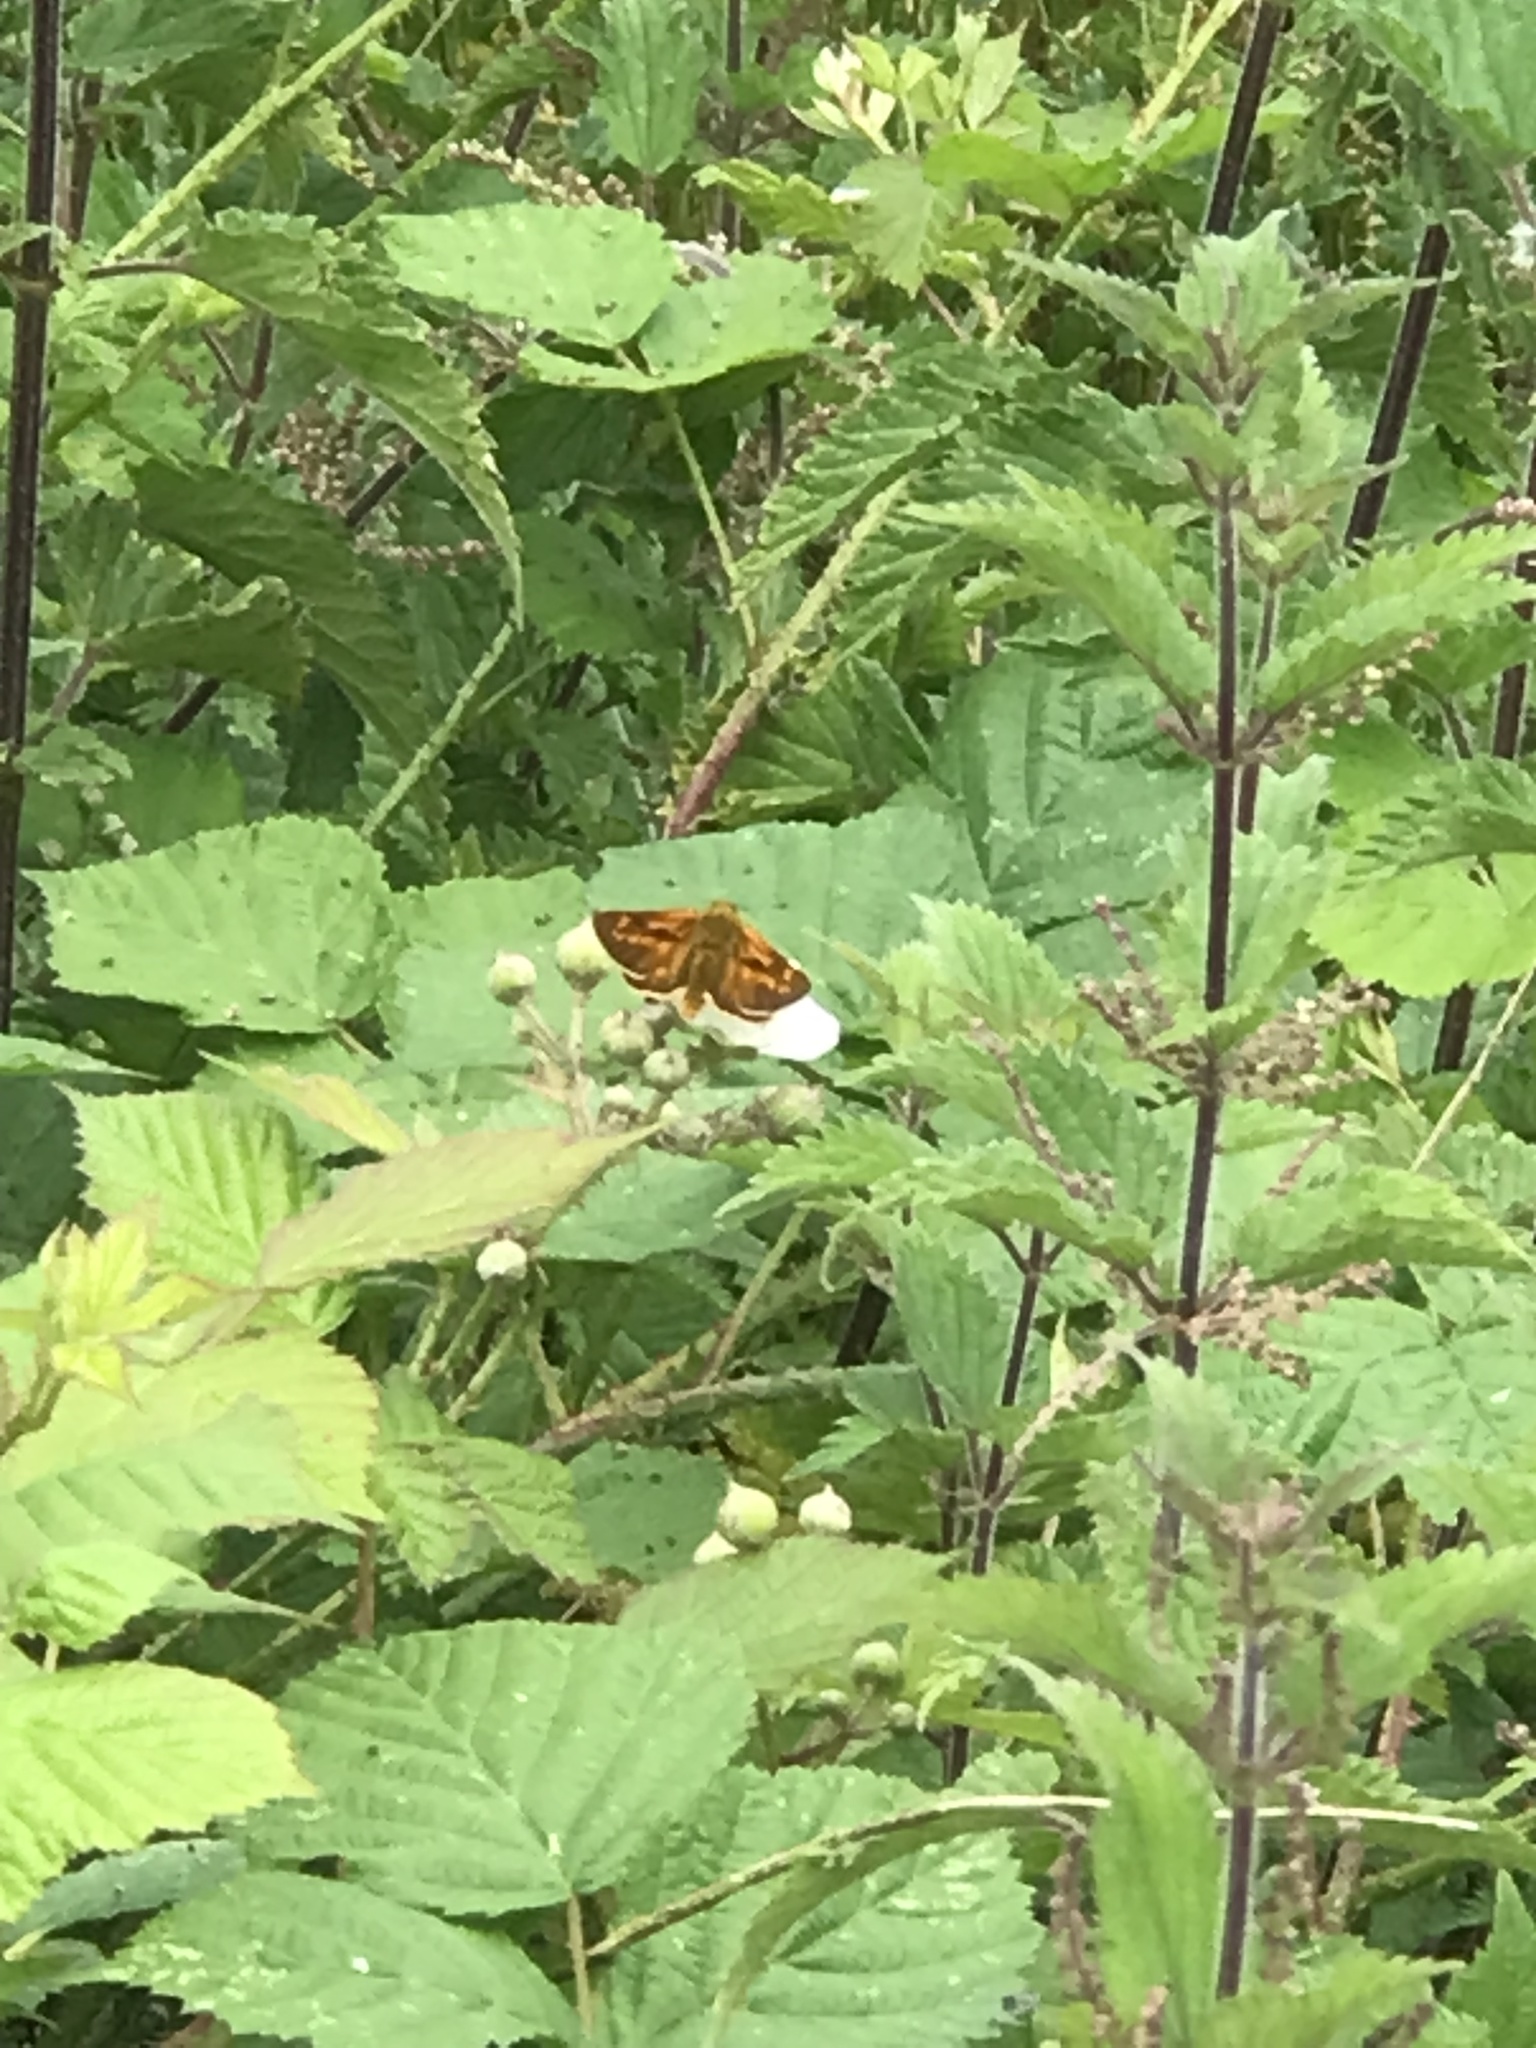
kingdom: Animalia
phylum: Arthropoda
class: Insecta
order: Lepidoptera
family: Hesperiidae
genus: Ochlodes
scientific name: Ochlodes venata
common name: Large skipper
